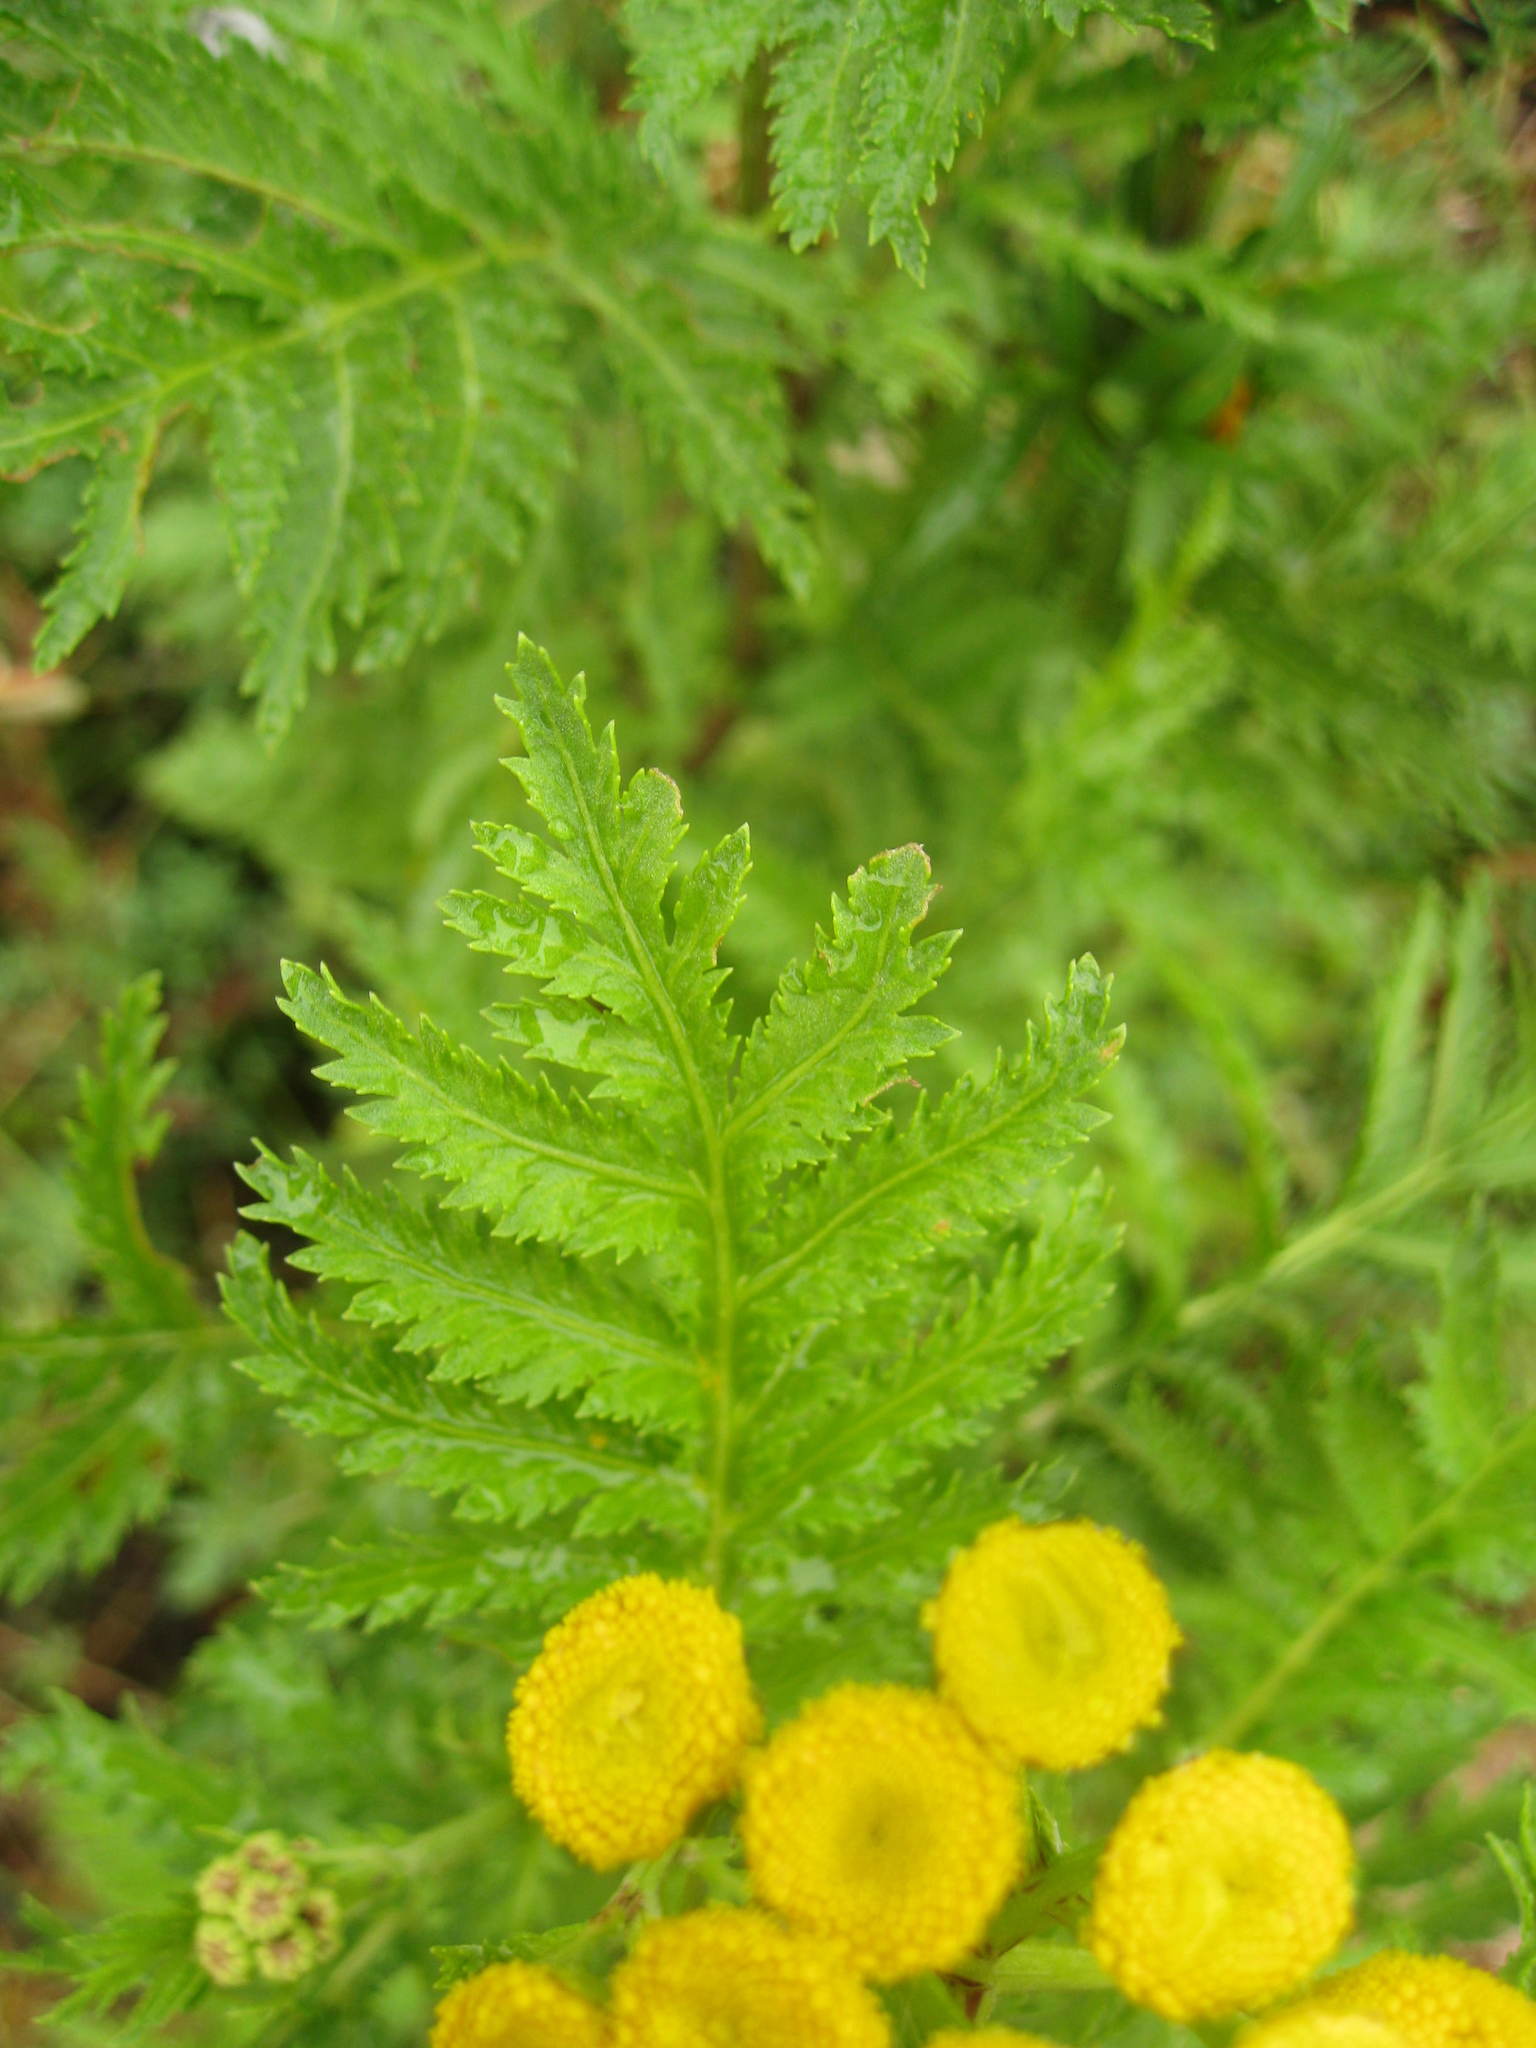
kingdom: Plantae
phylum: Tracheophyta
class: Magnoliopsida
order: Asterales
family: Asteraceae
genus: Tanacetum
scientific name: Tanacetum vulgare
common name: Common tansy
